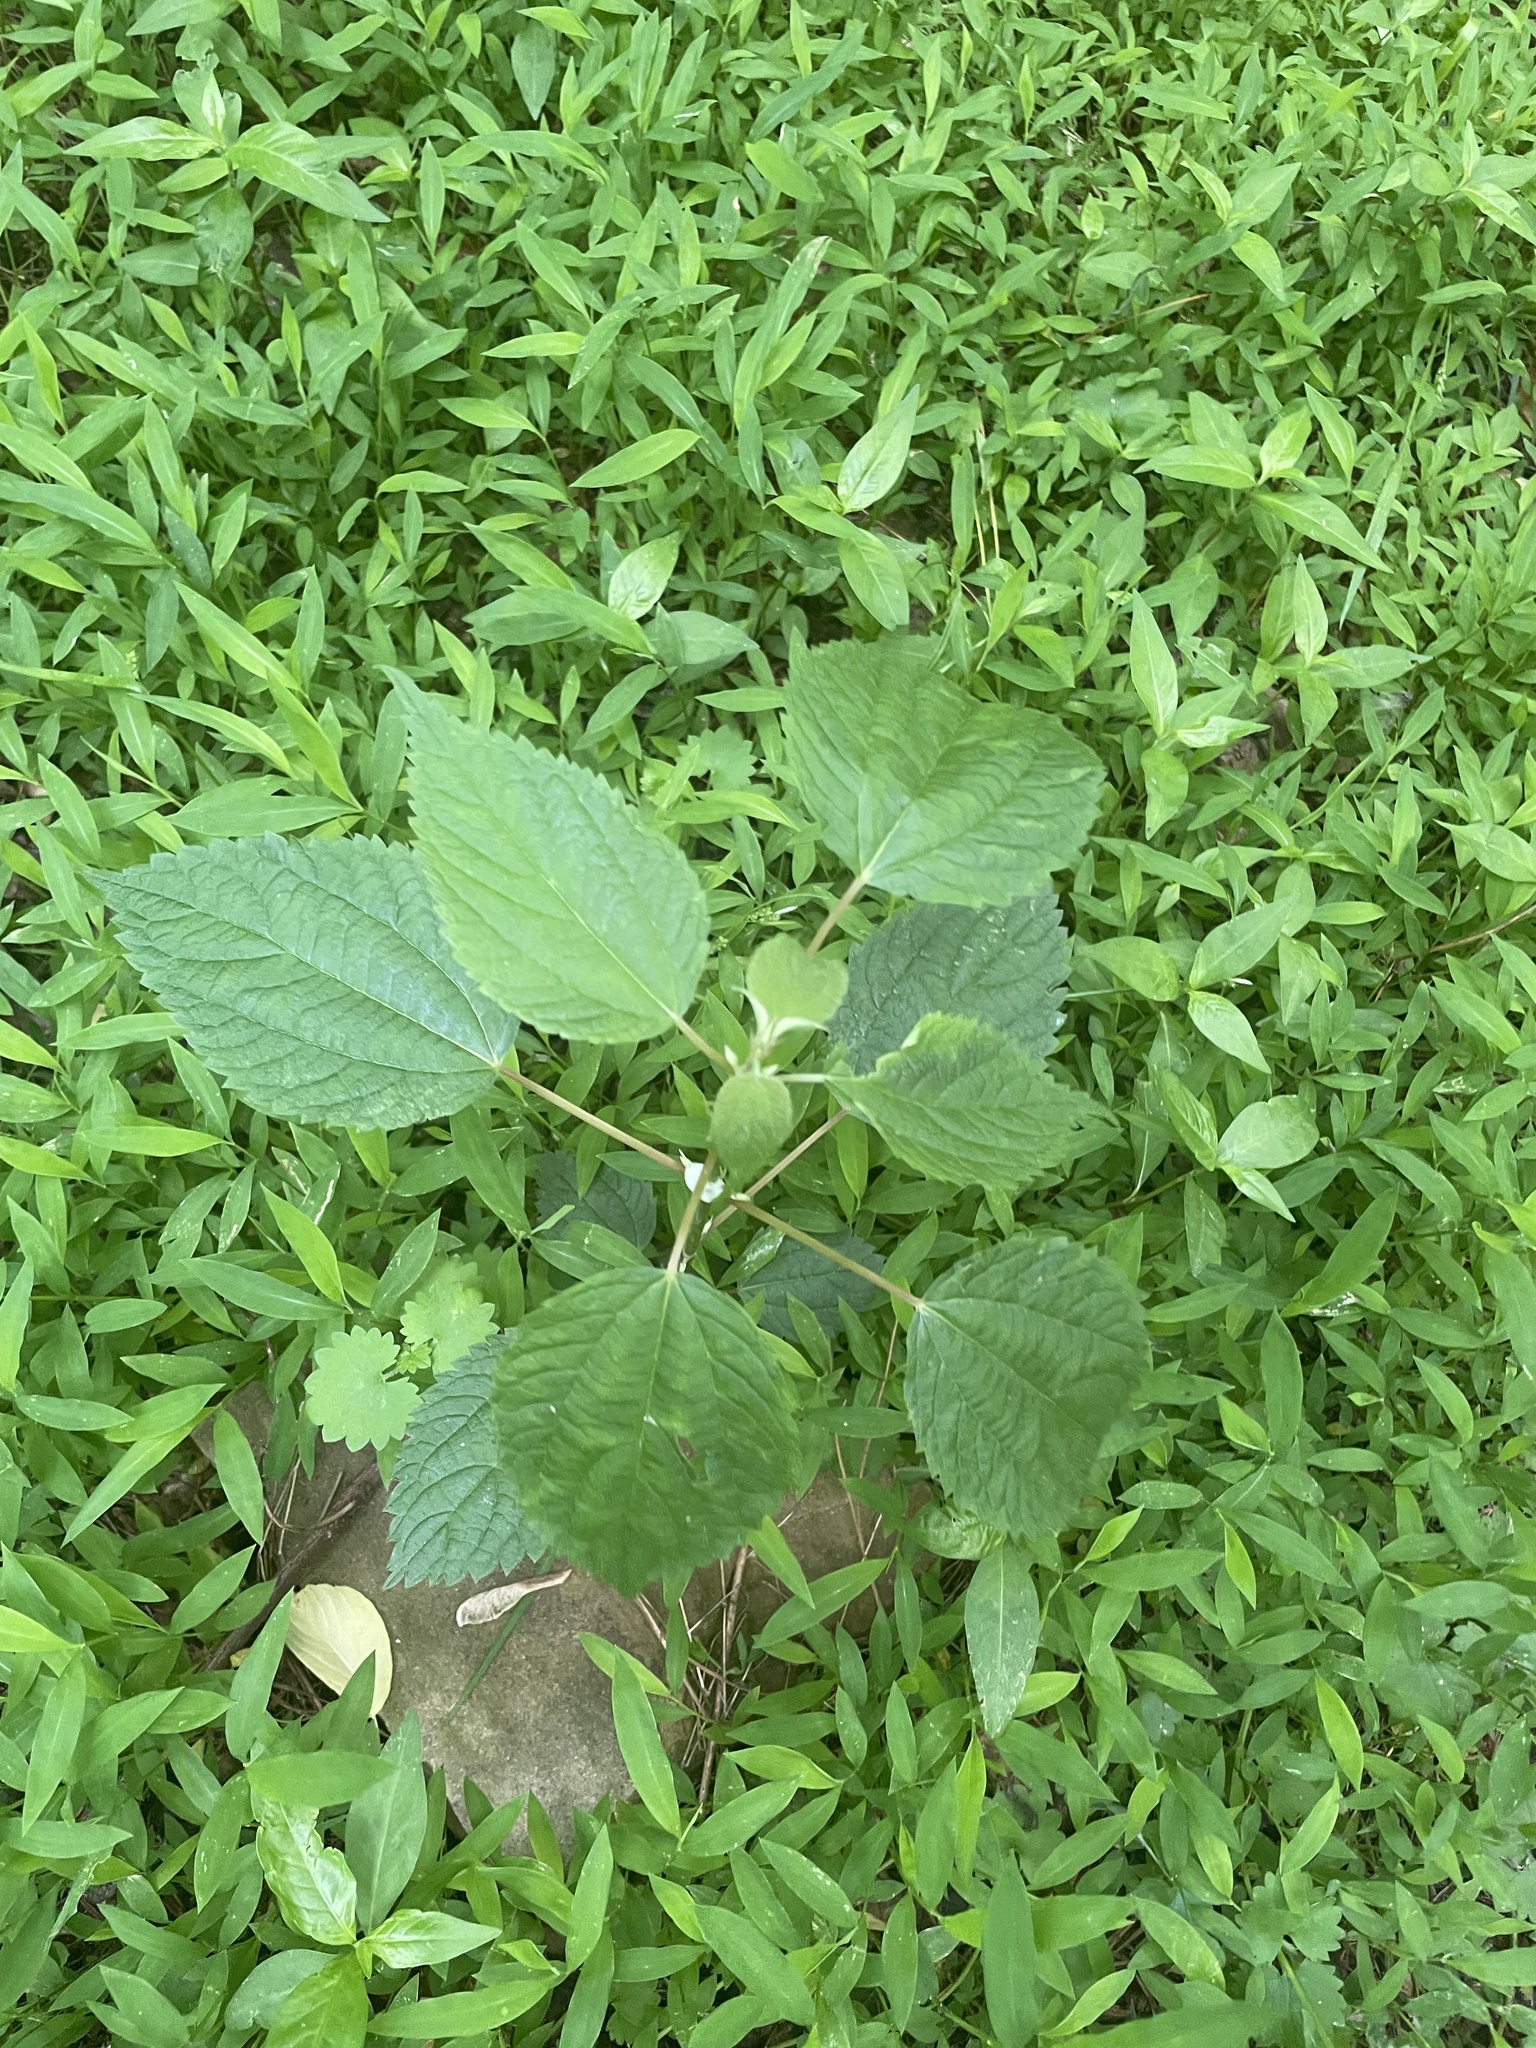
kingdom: Plantae
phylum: Tracheophyta
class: Magnoliopsida
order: Rosales
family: Urticaceae
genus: Boehmeria
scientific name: Boehmeria cylindrica
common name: Bog-hemp
